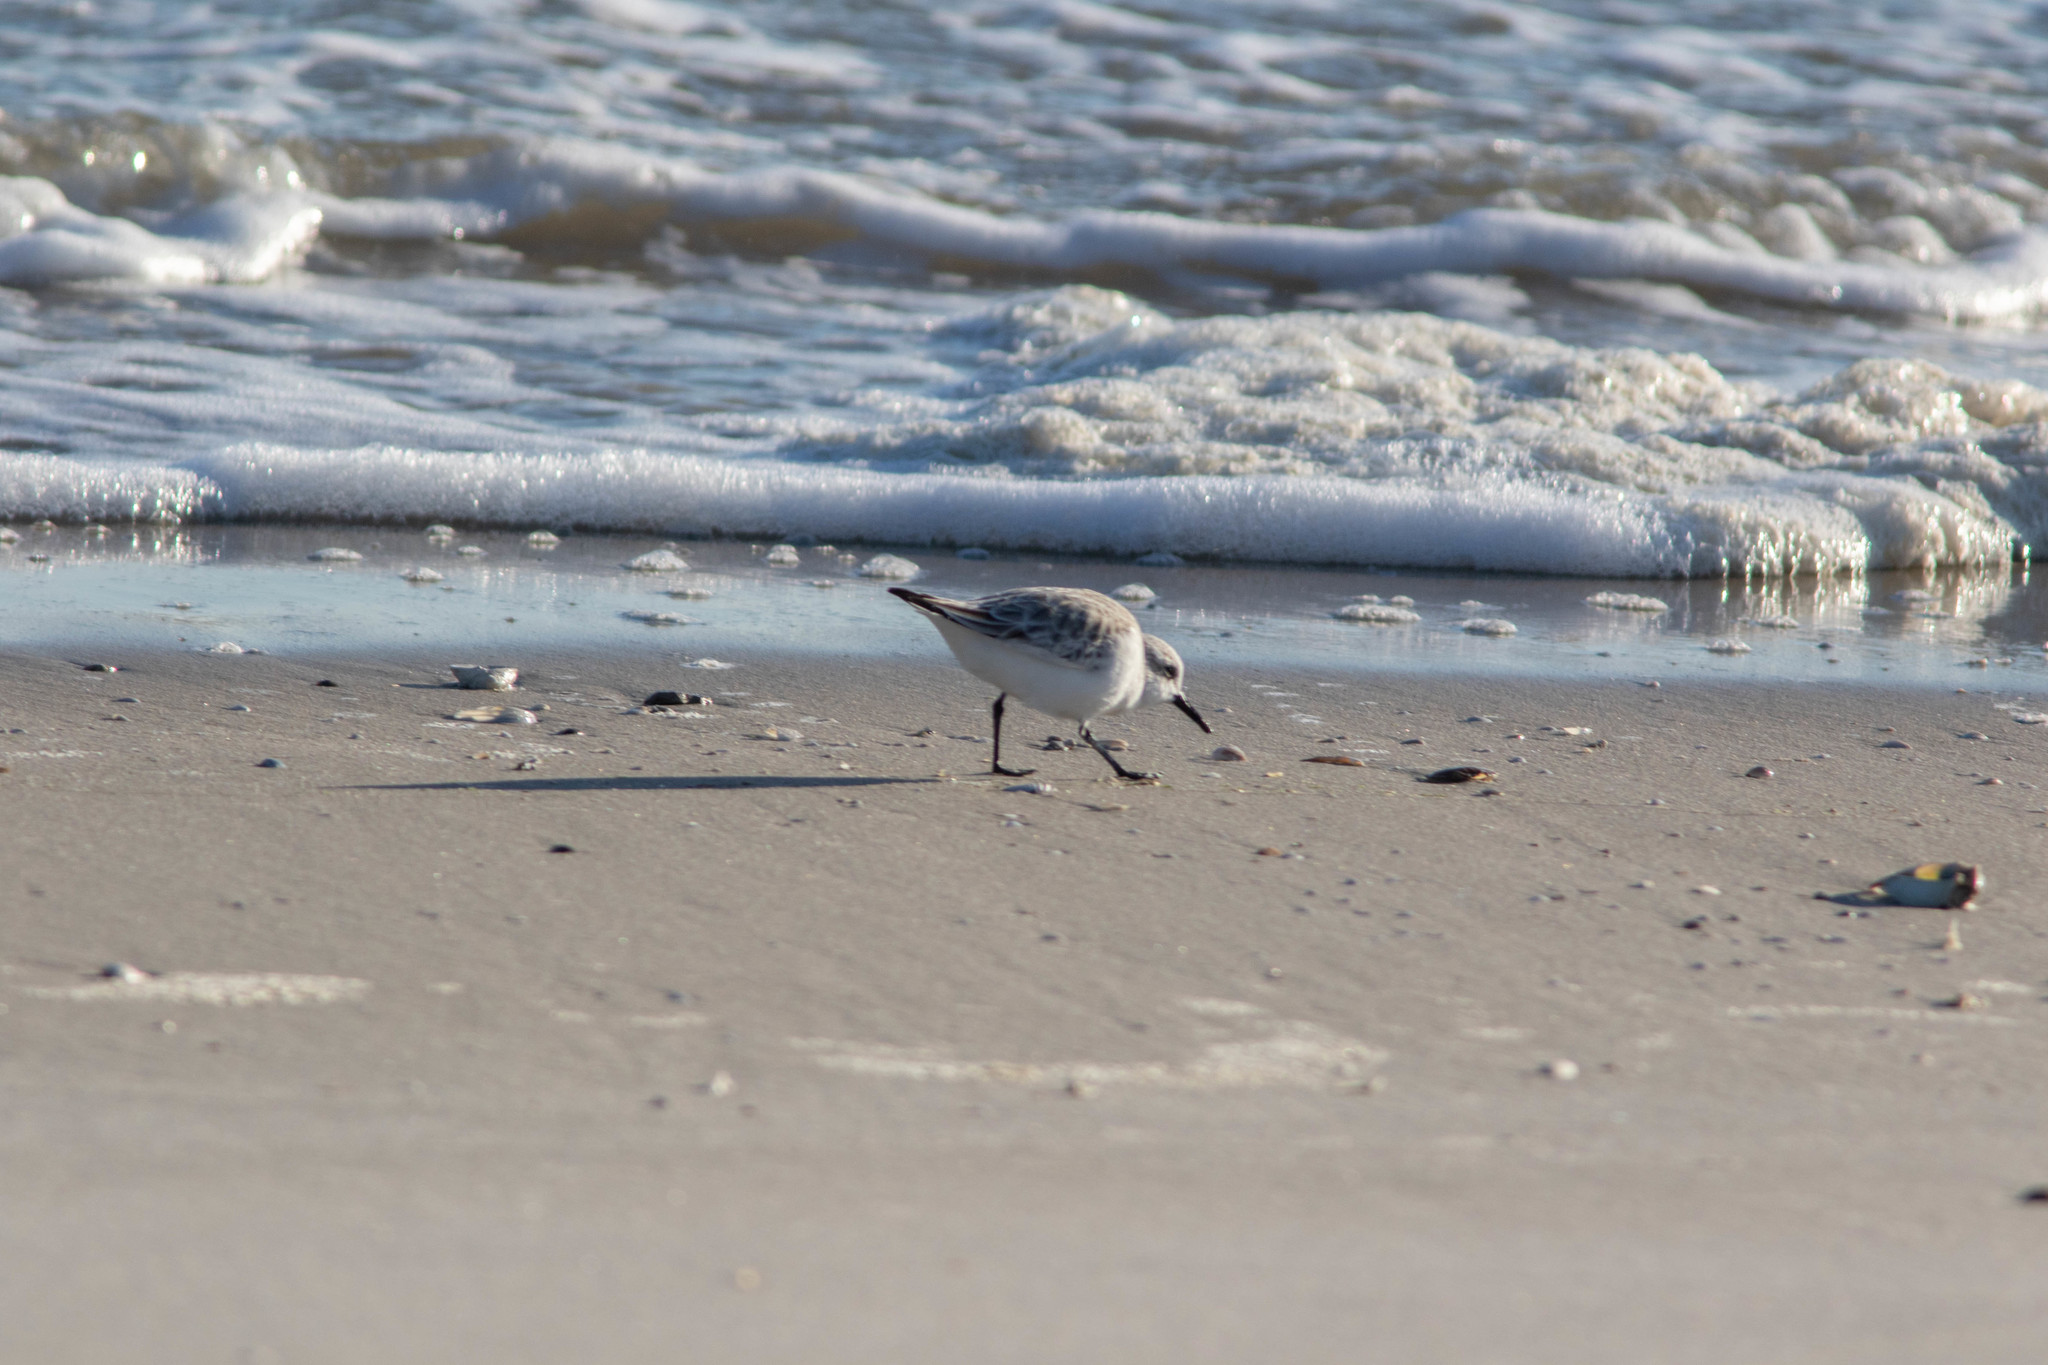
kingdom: Animalia
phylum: Chordata
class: Aves
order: Charadriiformes
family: Scolopacidae
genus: Calidris
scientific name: Calidris alba
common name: Sanderling
